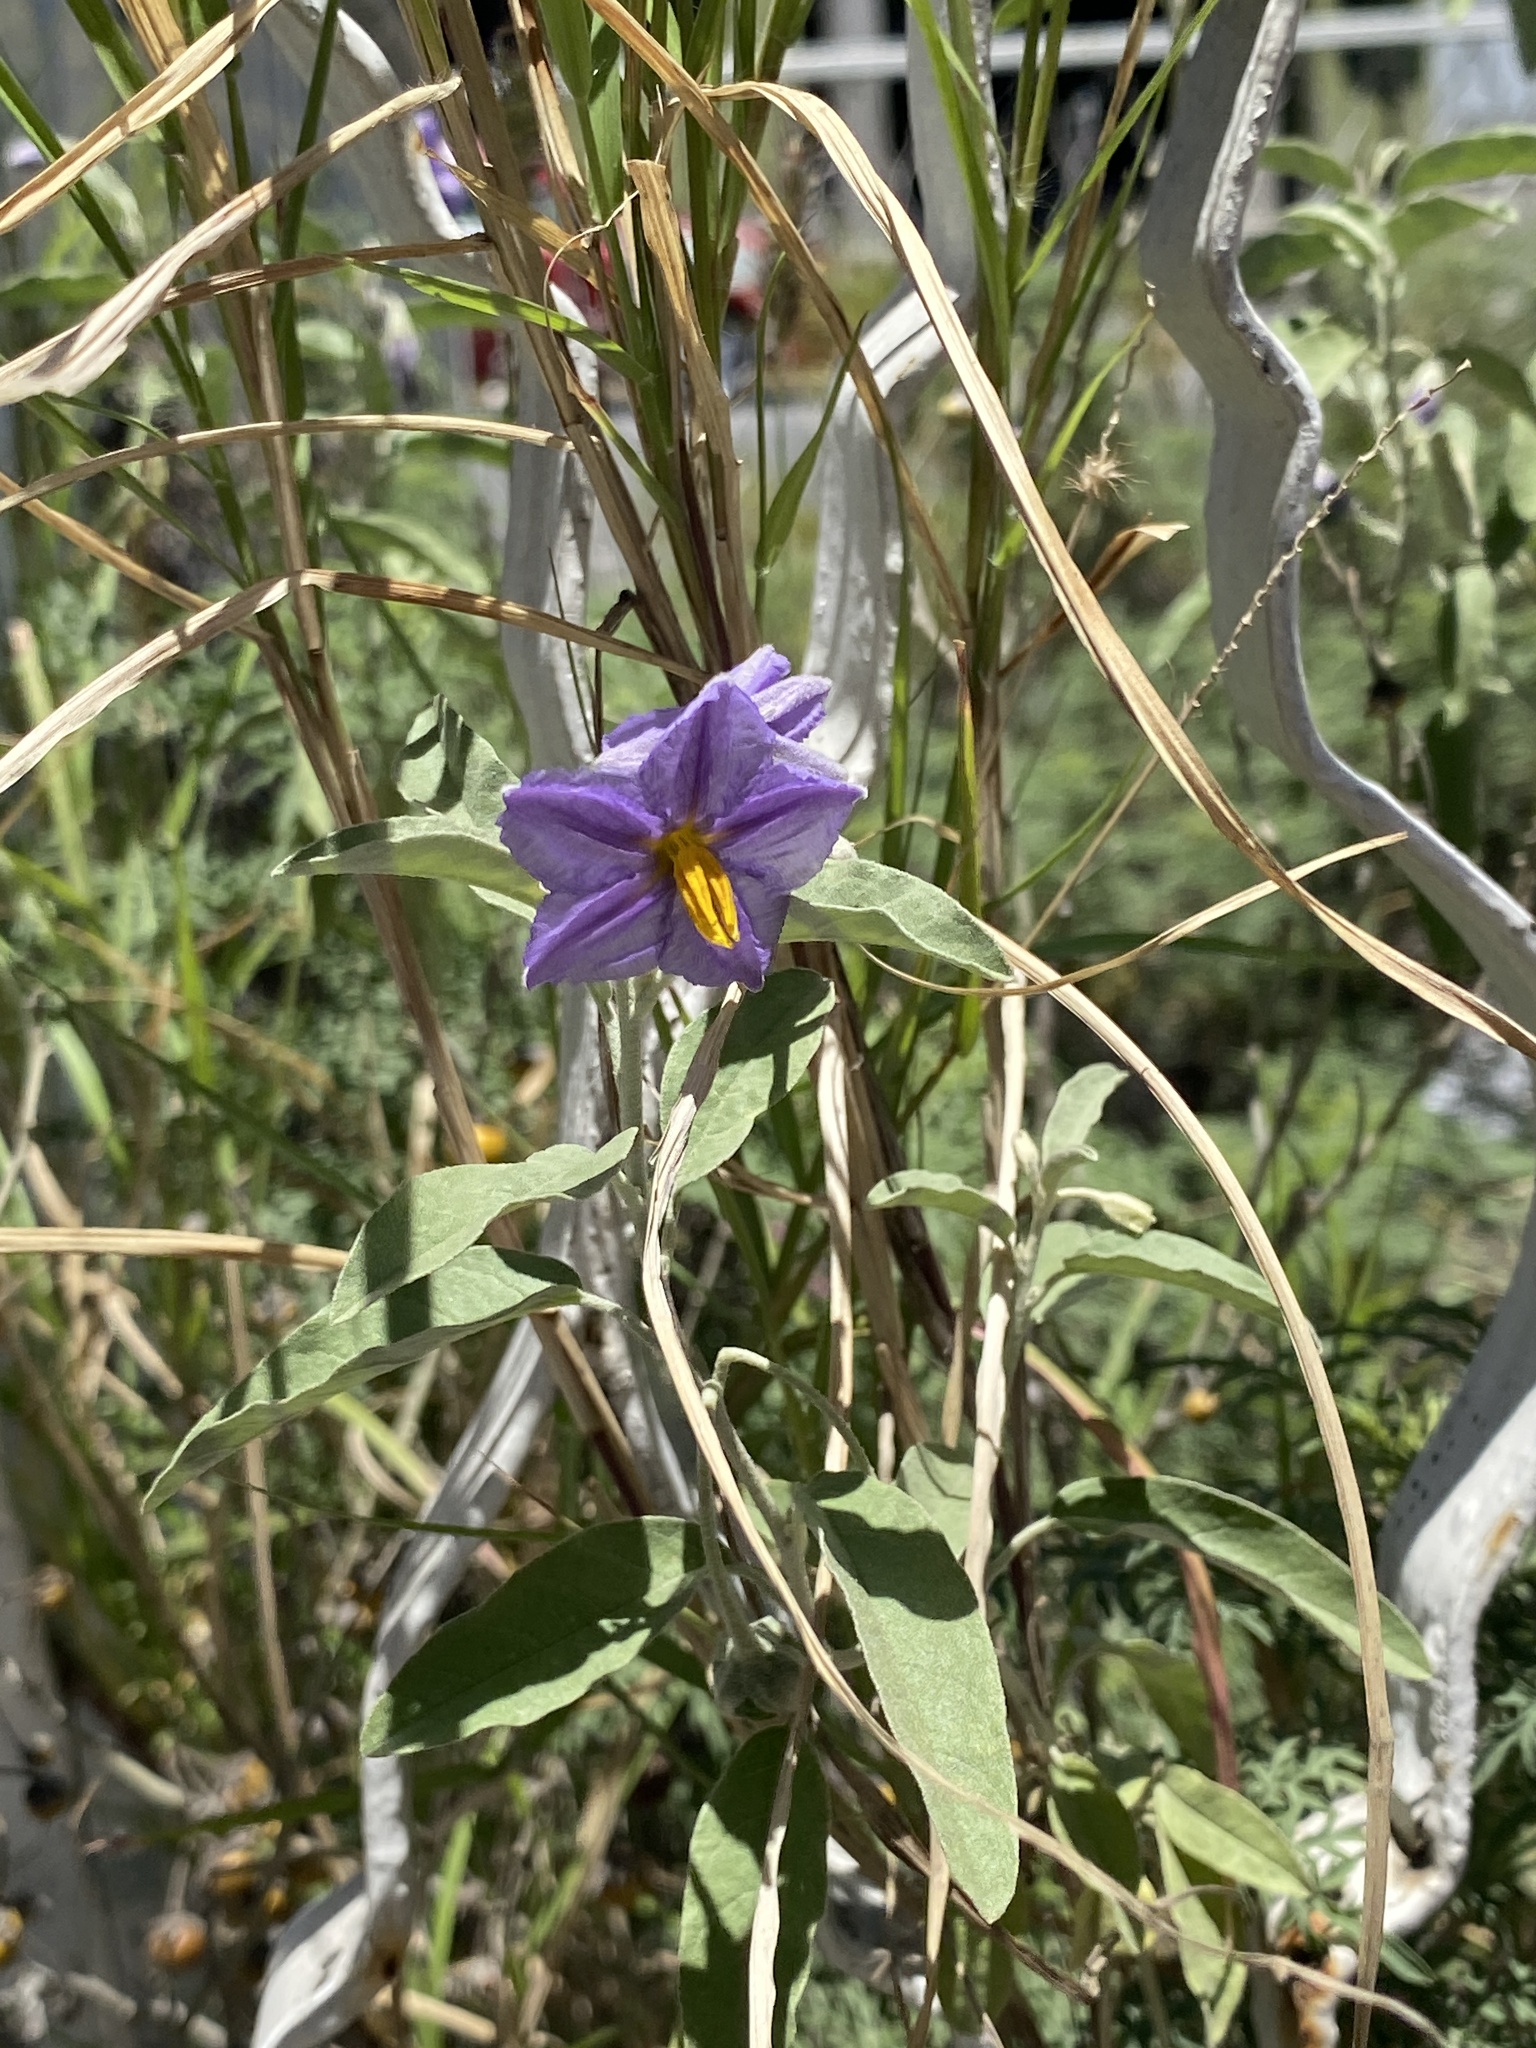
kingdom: Plantae
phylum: Tracheophyta
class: Magnoliopsida
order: Solanales
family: Solanaceae
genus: Solanum
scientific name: Solanum elaeagnifolium
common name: Silverleaf nightshade
